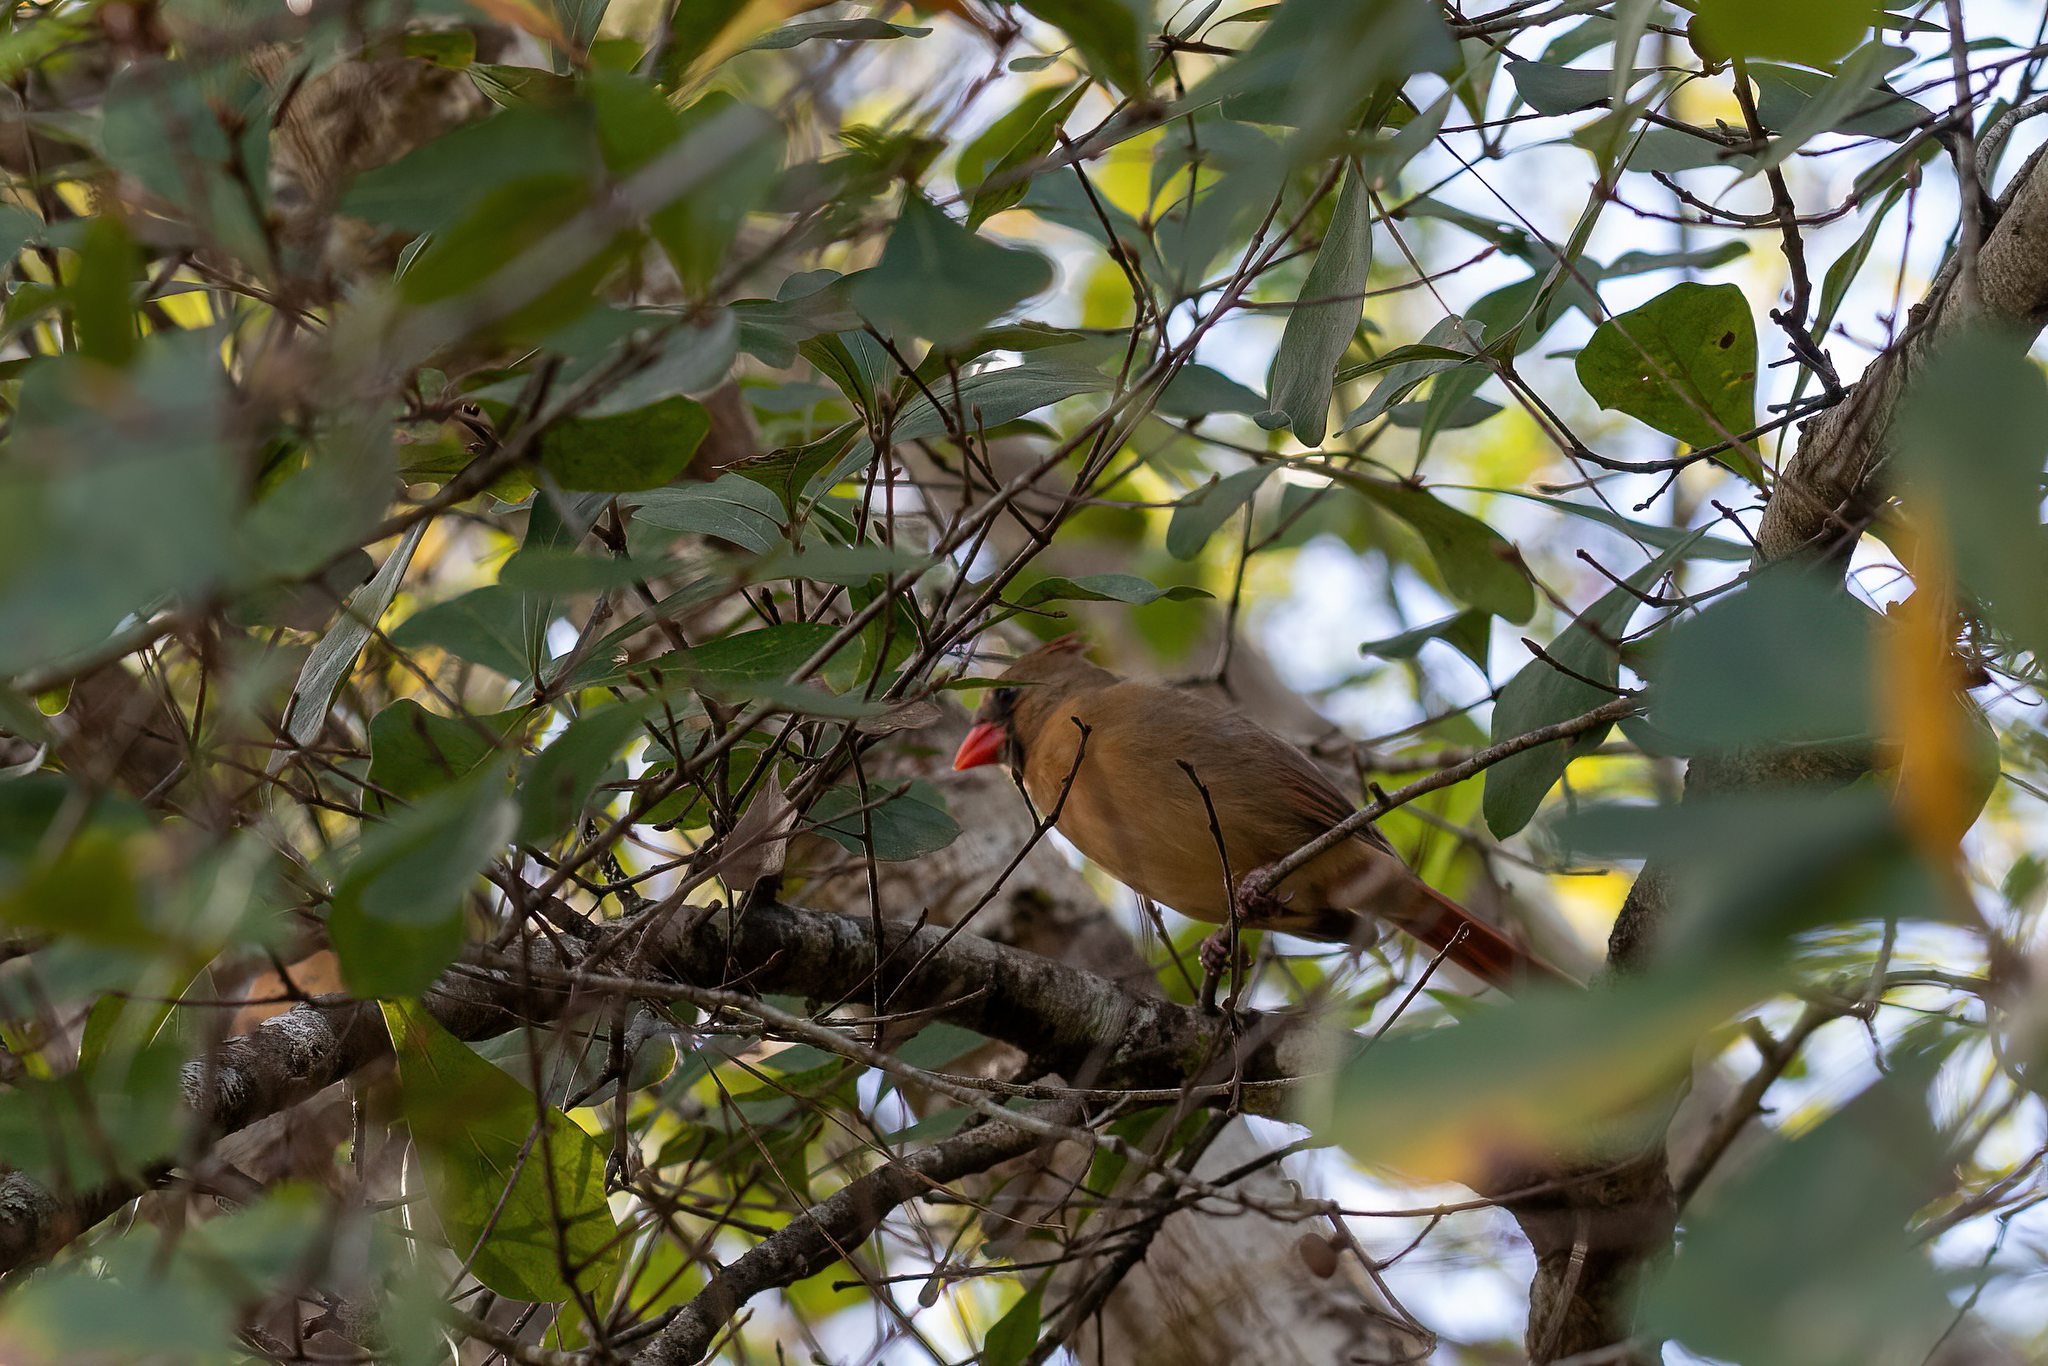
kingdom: Animalia
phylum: Chordata
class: Aves
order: Passeriformes
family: Cardinalidae
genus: Cardinalis
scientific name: Cardinalis cardinalis
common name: Northern cardinal
